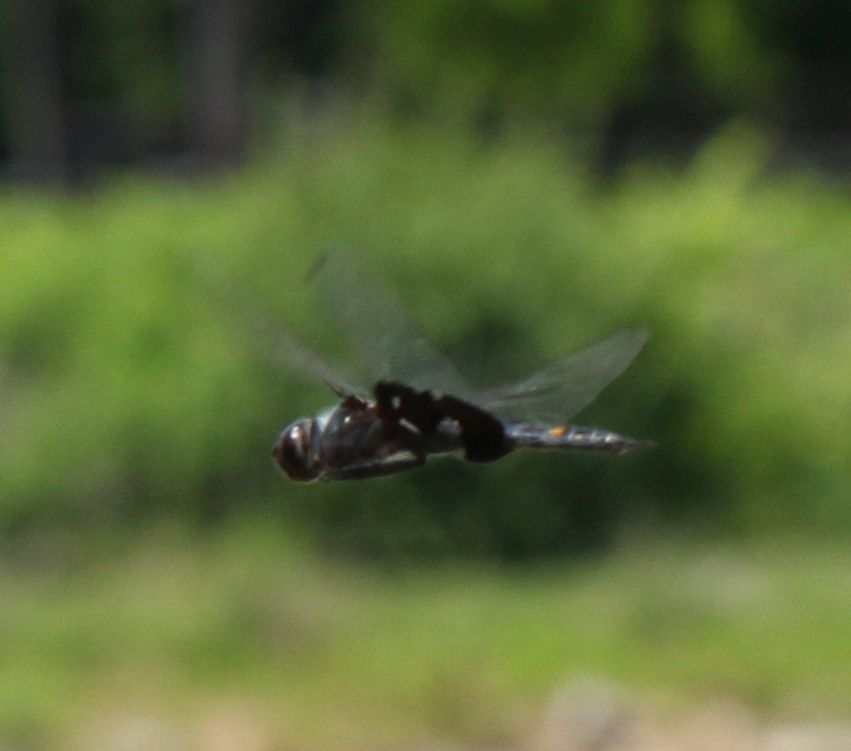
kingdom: Animalia
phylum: Arthropoda
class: Insecta
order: Odonata
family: Libellulidae
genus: Tramea
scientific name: Tramea lacerata
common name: Black saddlebags
